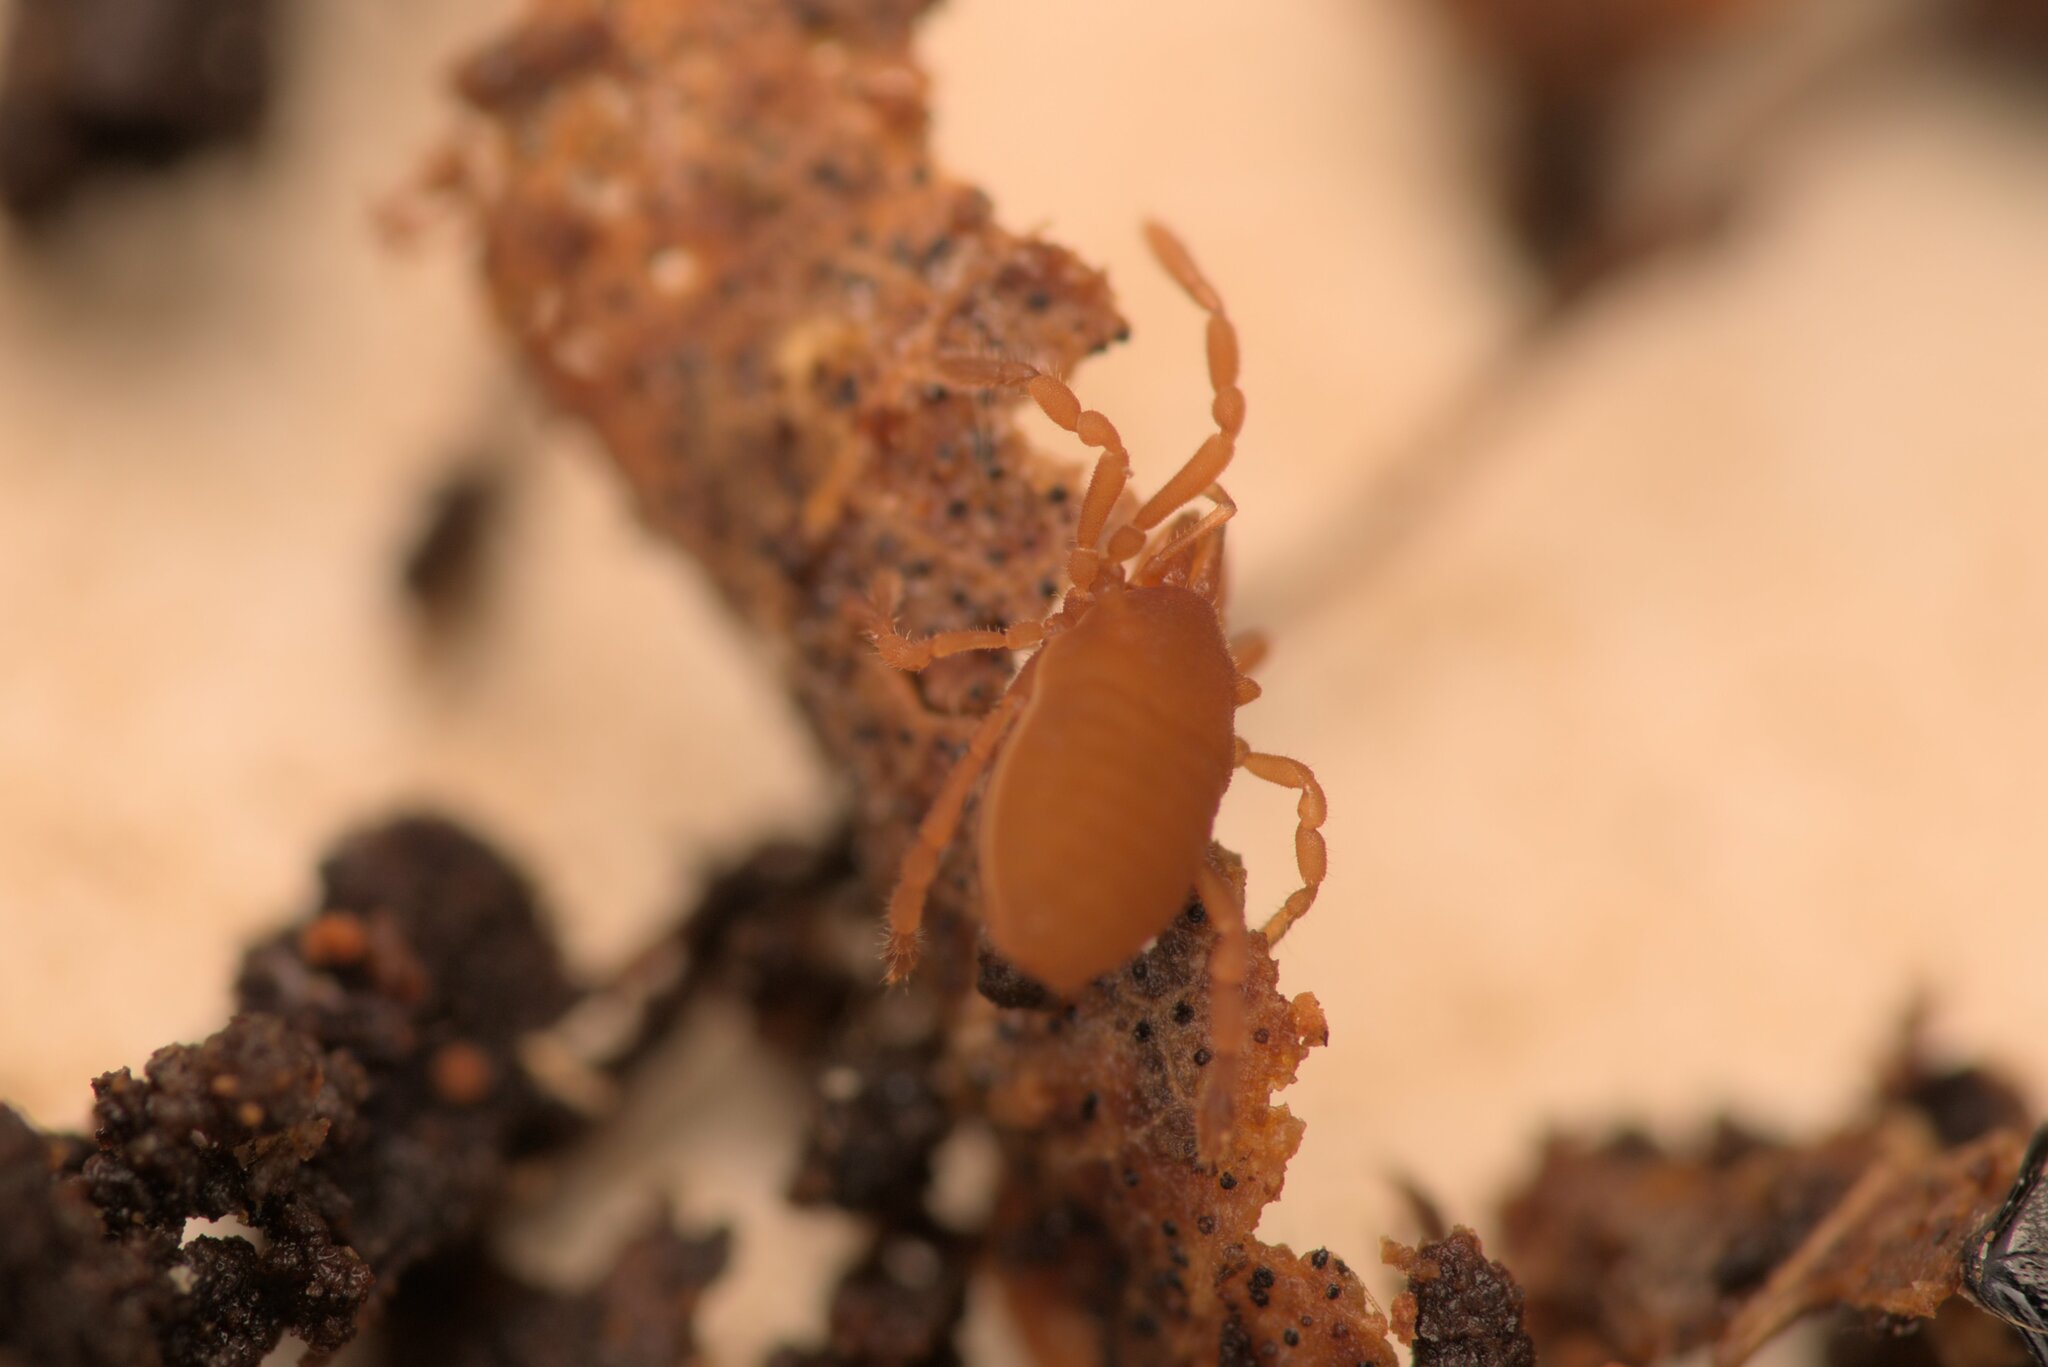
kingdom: Animalia
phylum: Arthropoda
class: Arachnida
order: Opiliones
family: Sironidae
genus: Siro
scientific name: Siro rubens
